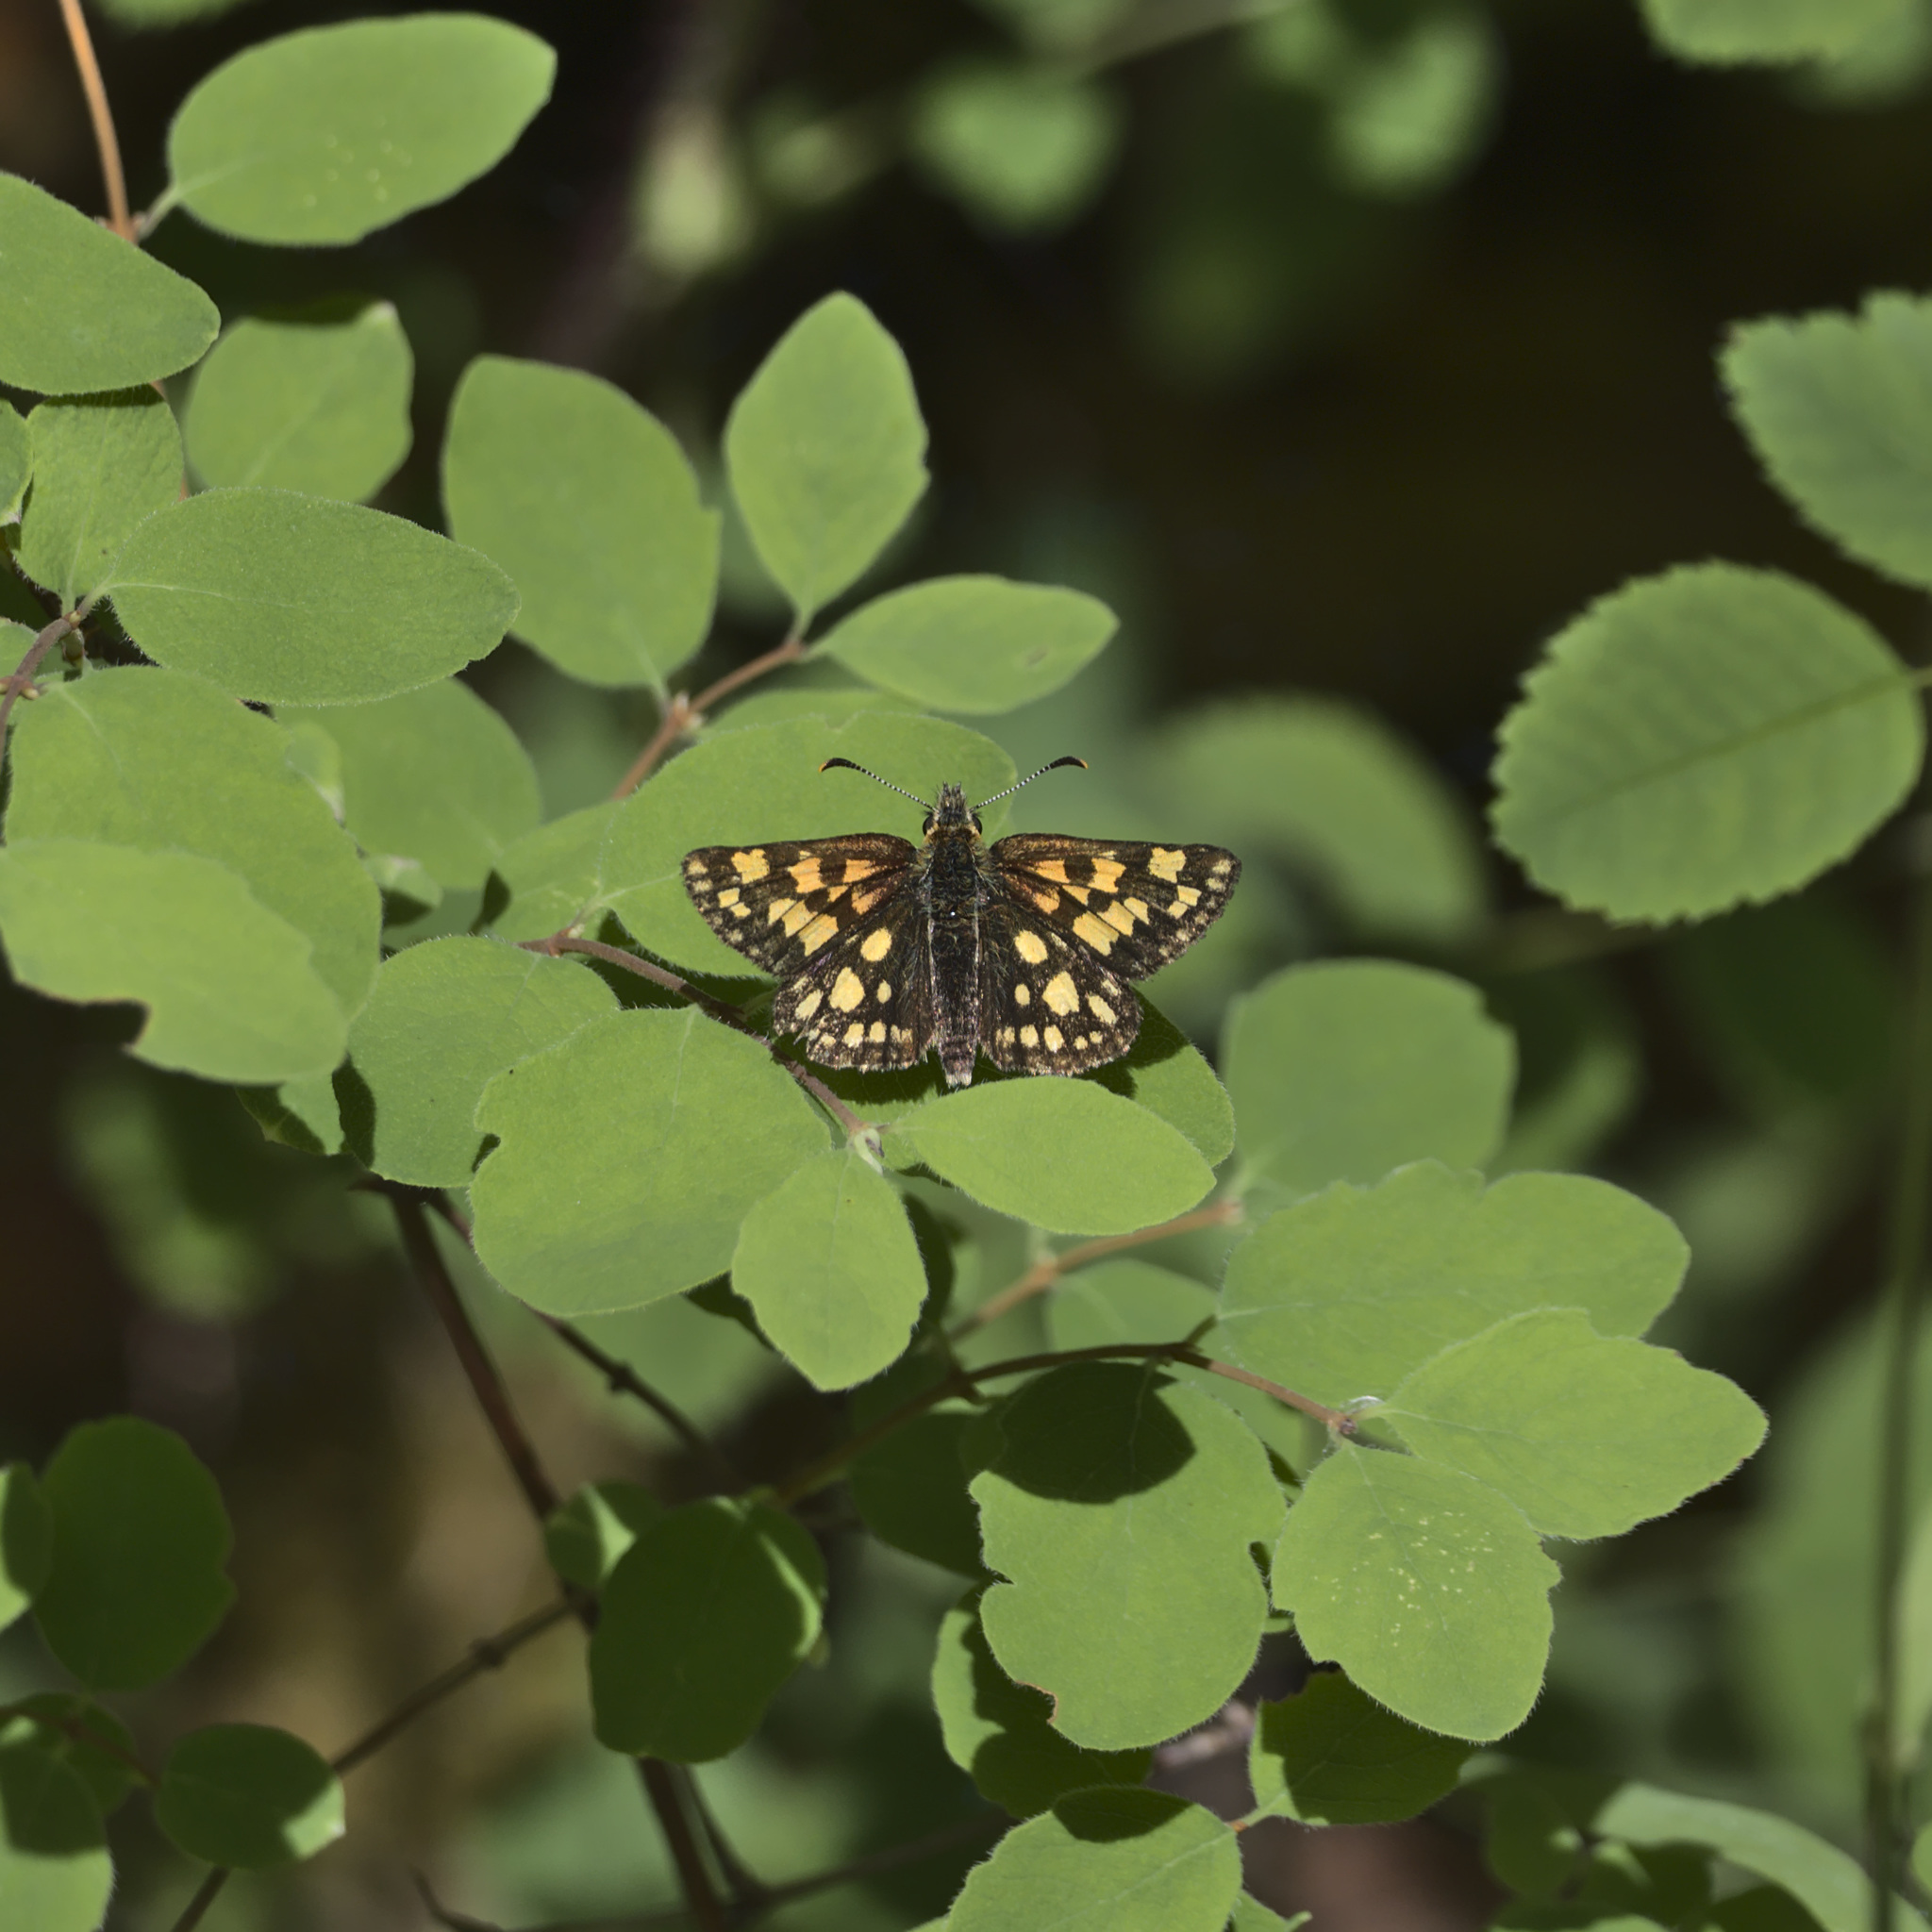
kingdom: Animalia
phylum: Arthropoda
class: Insecta
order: Lepidoptera
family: Hesperiidae
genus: Carterocephalus
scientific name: Carterocephalus skada
